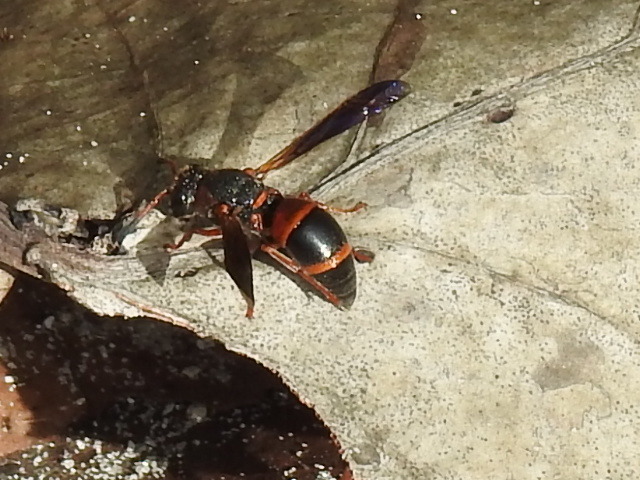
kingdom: Animalia
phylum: Arthropoda
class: Insecta
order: Hymenoptera
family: Eumenidae
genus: Pachodynerus
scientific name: Pachodynerus erynnis
